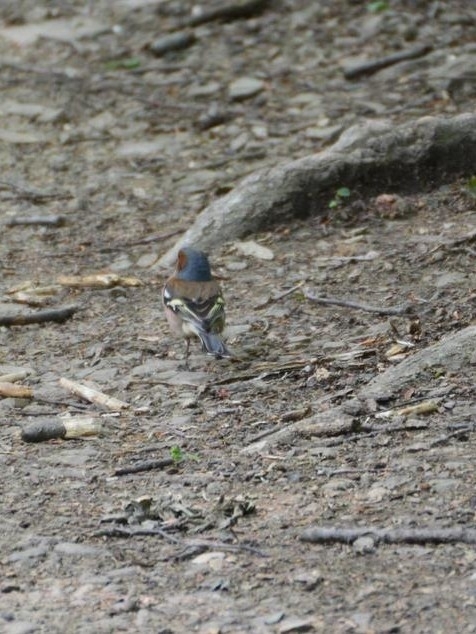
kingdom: Animalia
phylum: Chordata
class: Aves
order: Passeriformes
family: Fringillidae
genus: Fringilla
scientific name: Fringilla coelebs
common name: Common chaffinch
